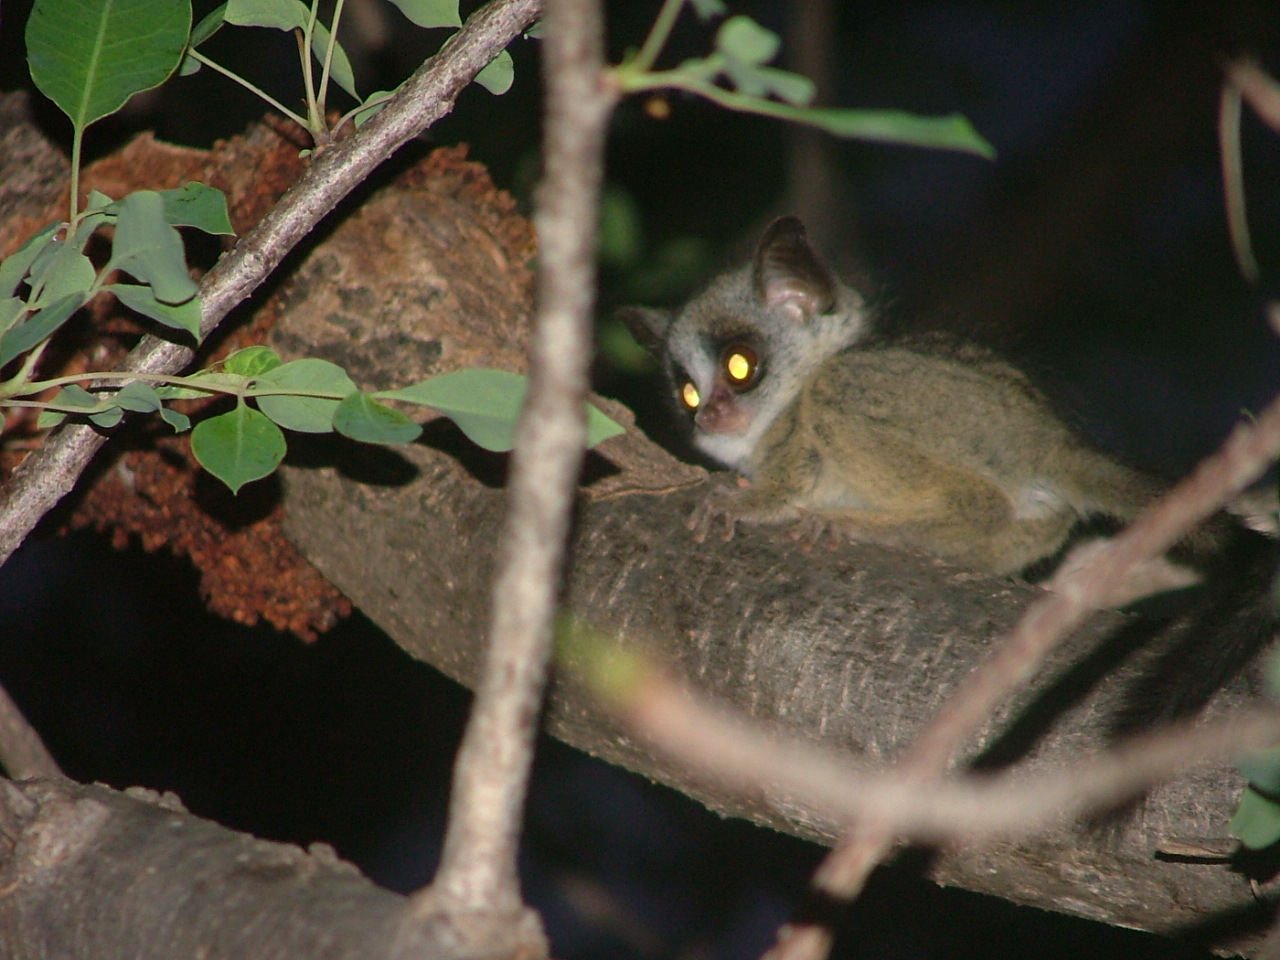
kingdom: Animalia
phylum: Chordata
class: Mammalia
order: Primates
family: Galagidae
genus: Galago
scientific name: Galago moholi
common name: Moholi bushbaby
